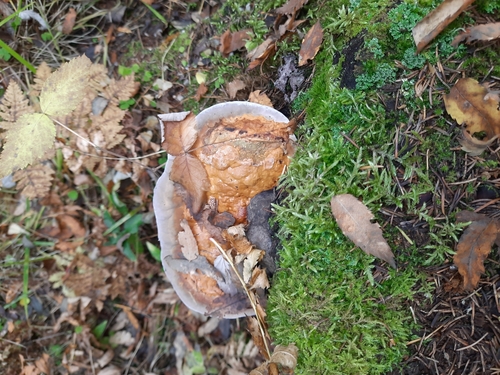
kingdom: Fungi
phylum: Basidiomycota
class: Agaricomycetes
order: Polyporales
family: Fomitopsidaceae
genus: Fomitopsis
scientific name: Fomitopsis pinicola
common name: Red-belted bracket
